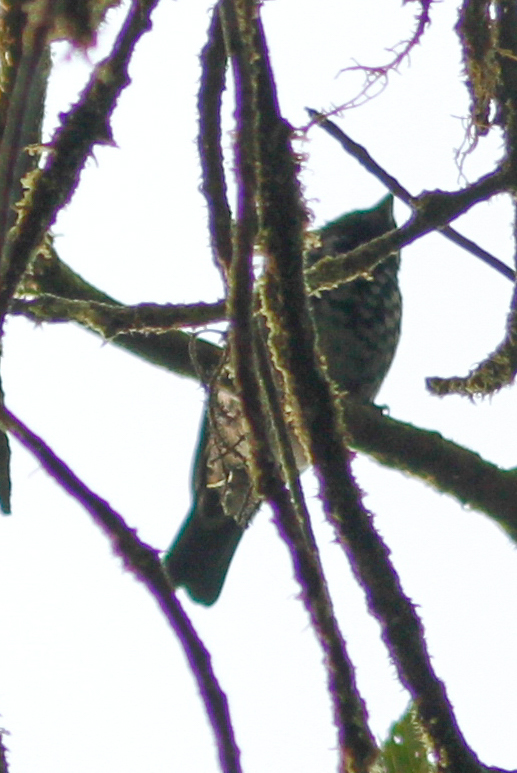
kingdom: Animalia
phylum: Chordata
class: Aves
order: Passeriformes
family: Thraupidae
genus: Tangara
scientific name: Tangara nigroviridis
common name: Beryl-spangled tanager
